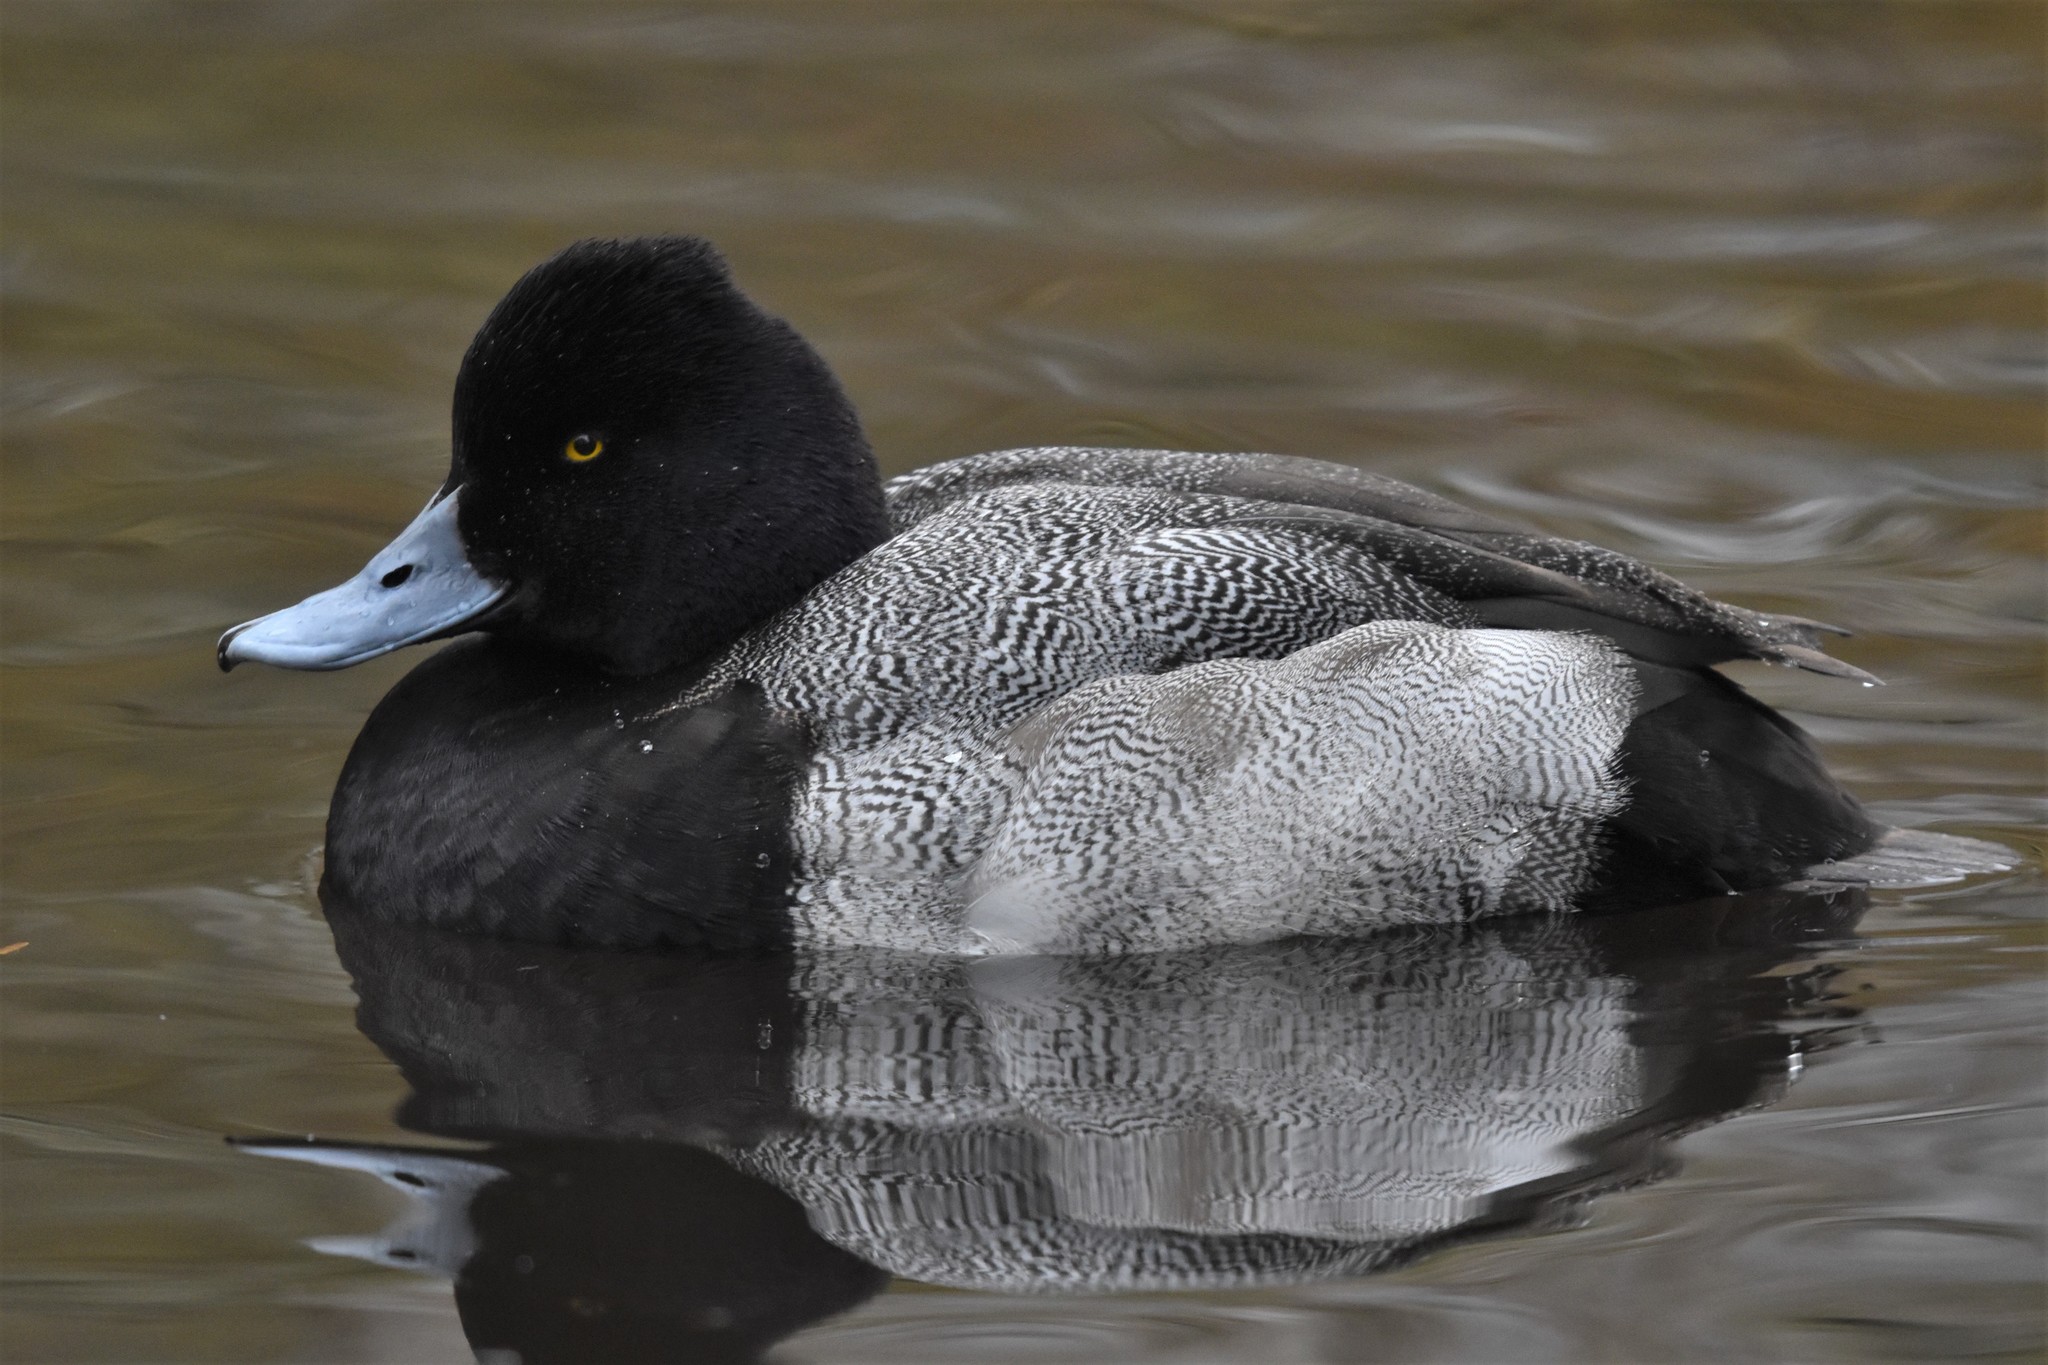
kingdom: Animalia
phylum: Chordata
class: Aves
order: Anseriformes
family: Anatidae
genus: Aythya
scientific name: Aythya affinis
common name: Lesser scaup
